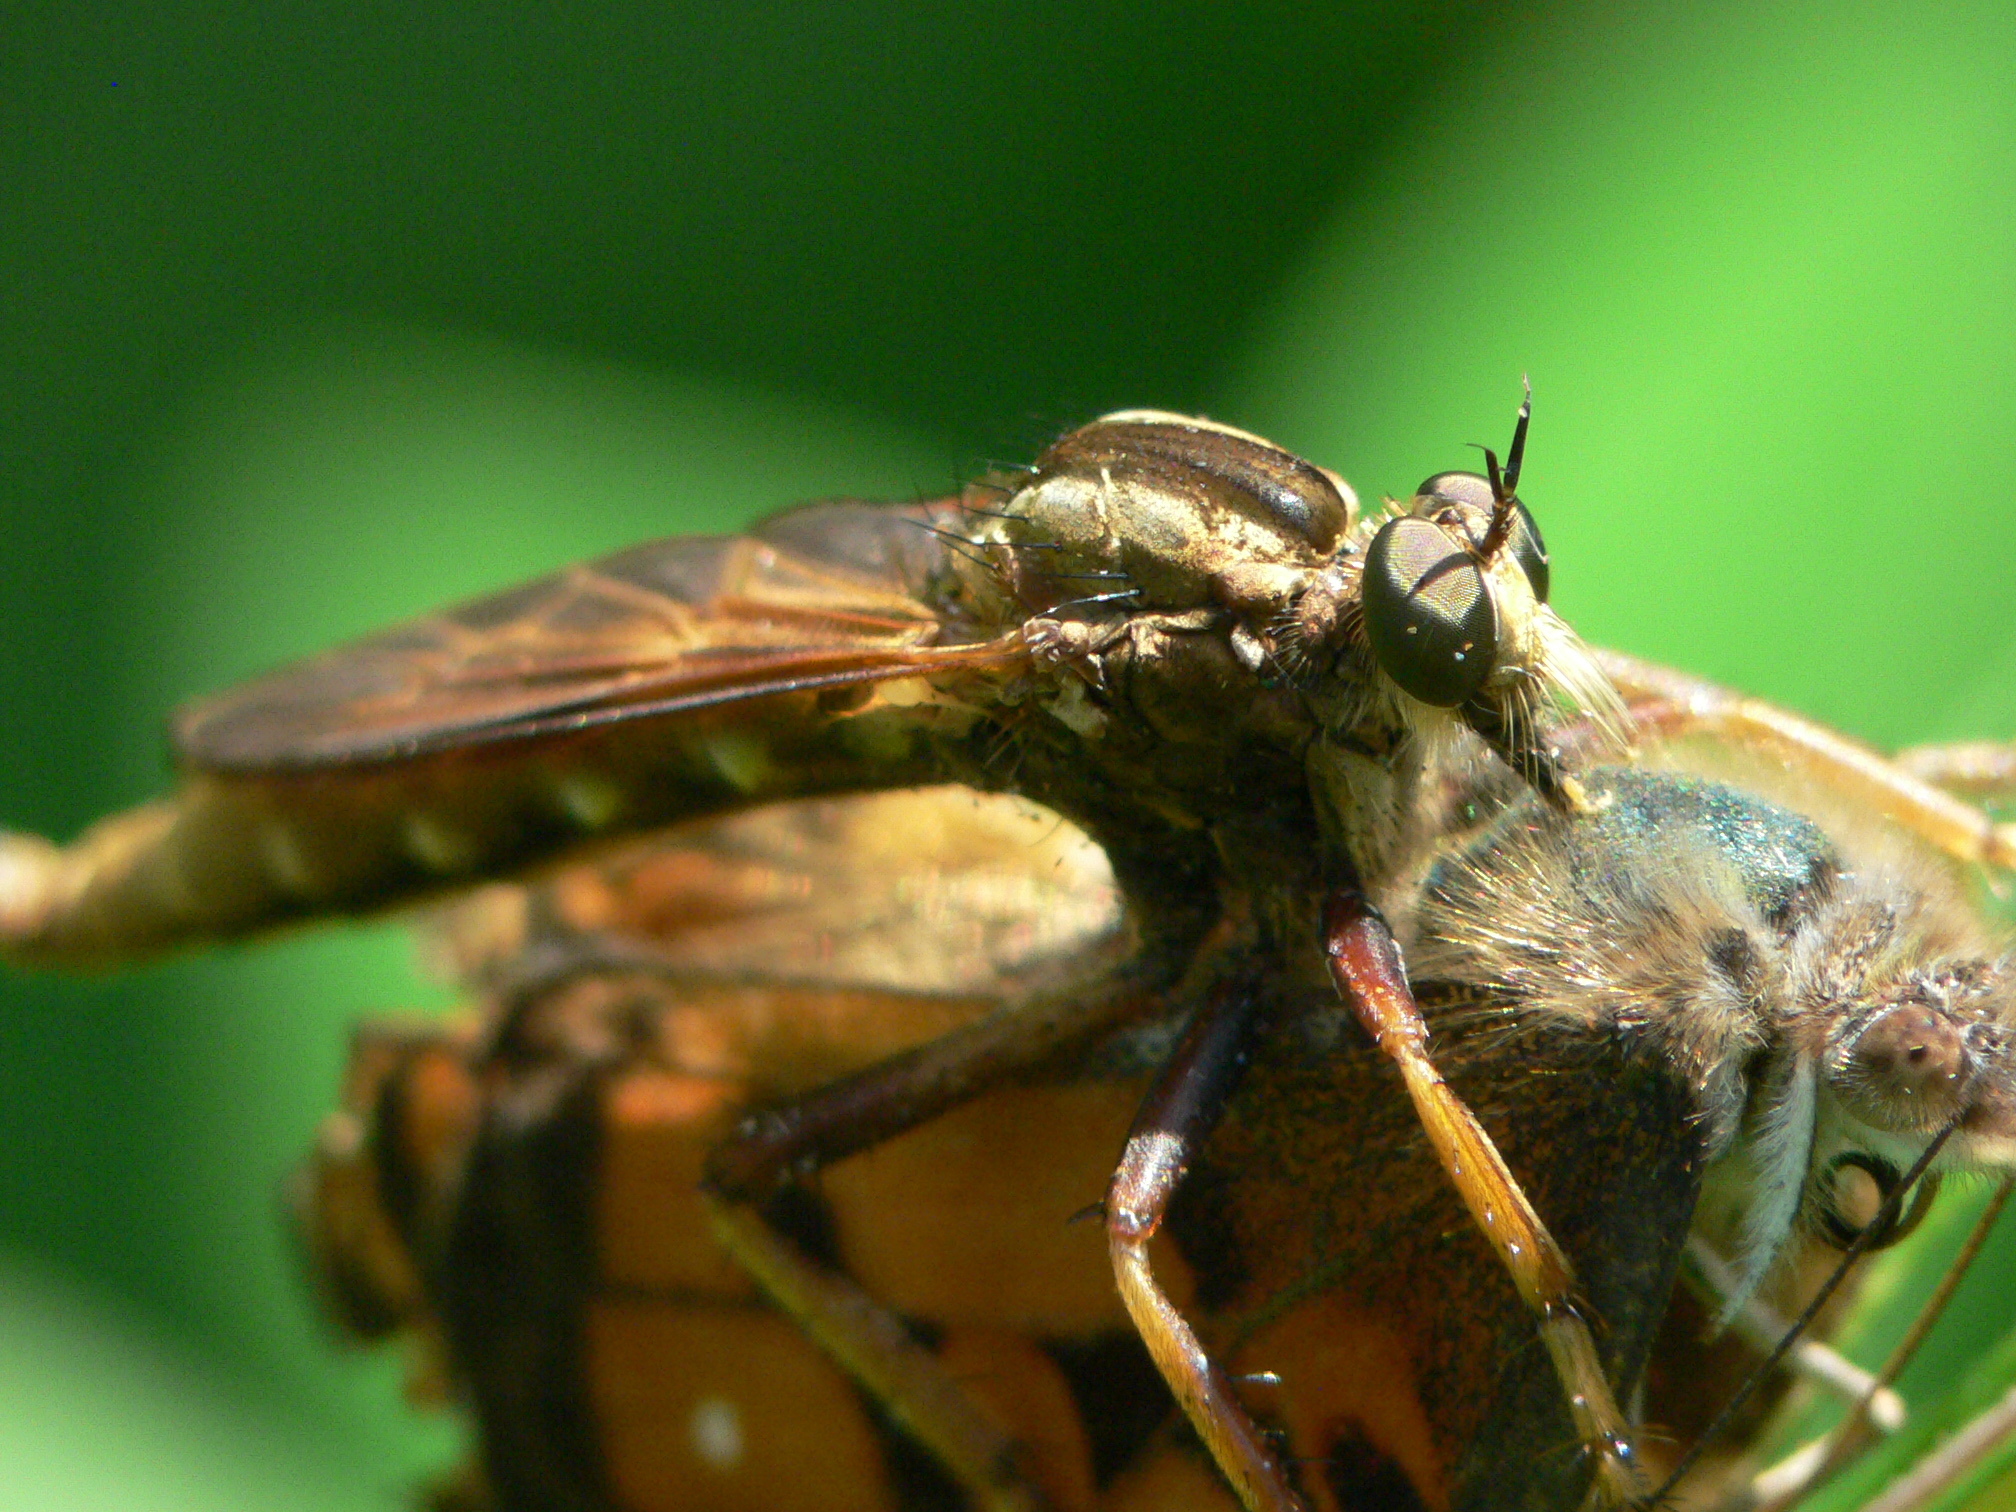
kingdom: Animalia
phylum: Arthropoda
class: Insecta
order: Diptera
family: Asilidae
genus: Asilus
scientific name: Asilus sericeus
